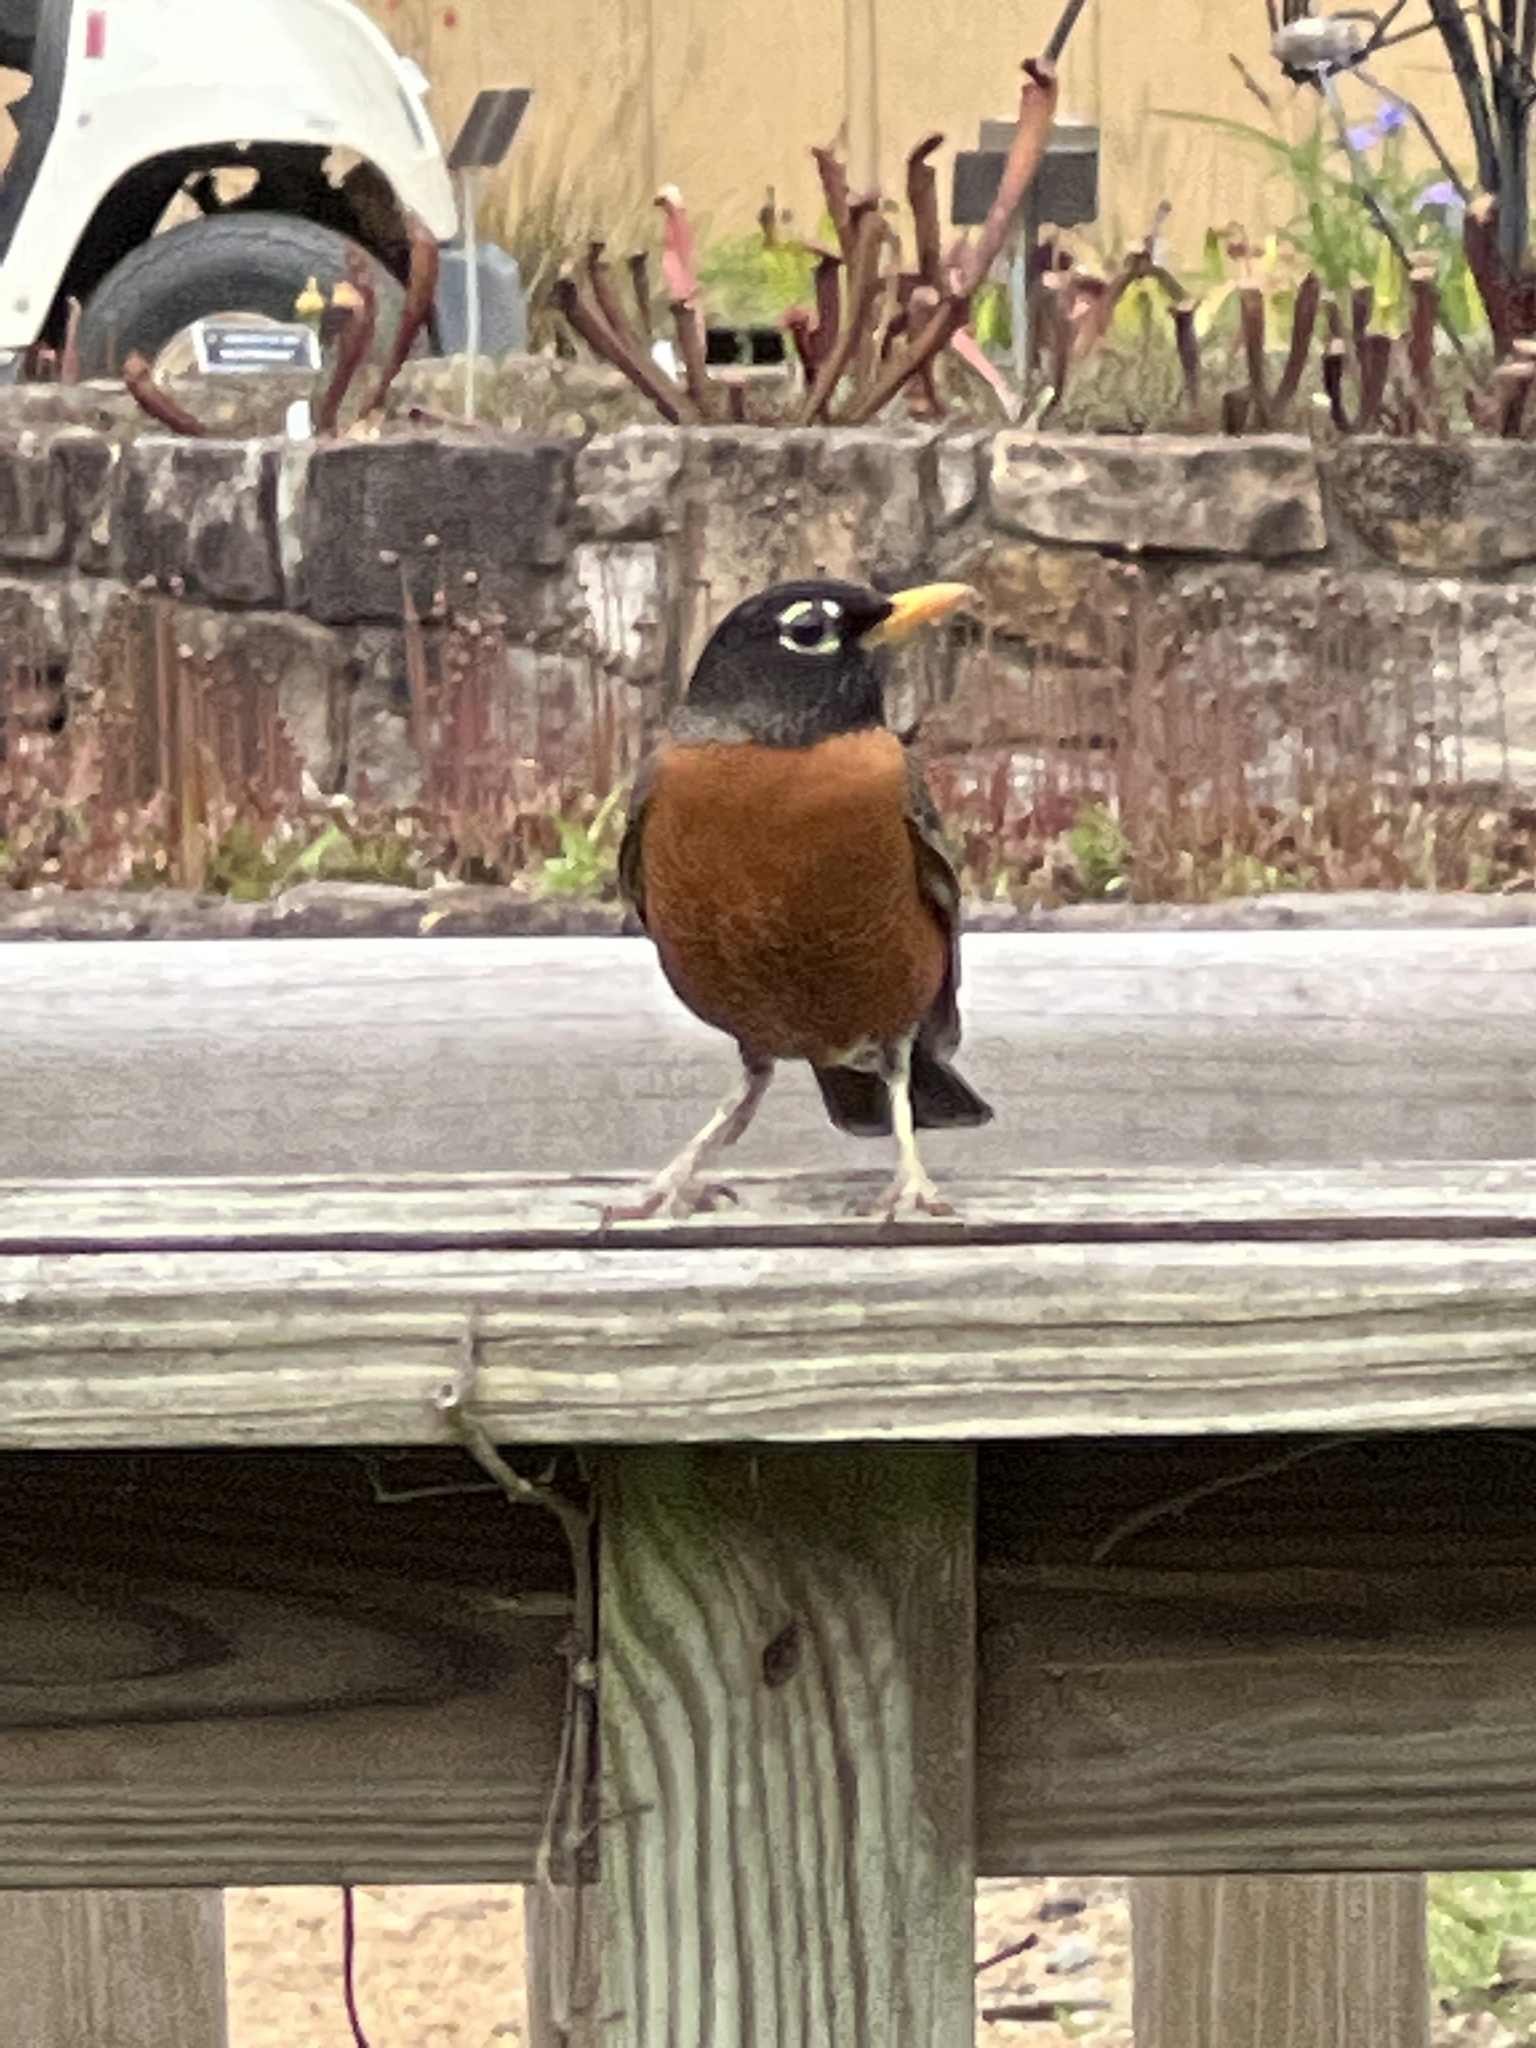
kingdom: Animalia
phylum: Chordata
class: Aves
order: Passeriformes
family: Turdidae
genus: Turdus
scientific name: Turdus migratorius
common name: American robin
